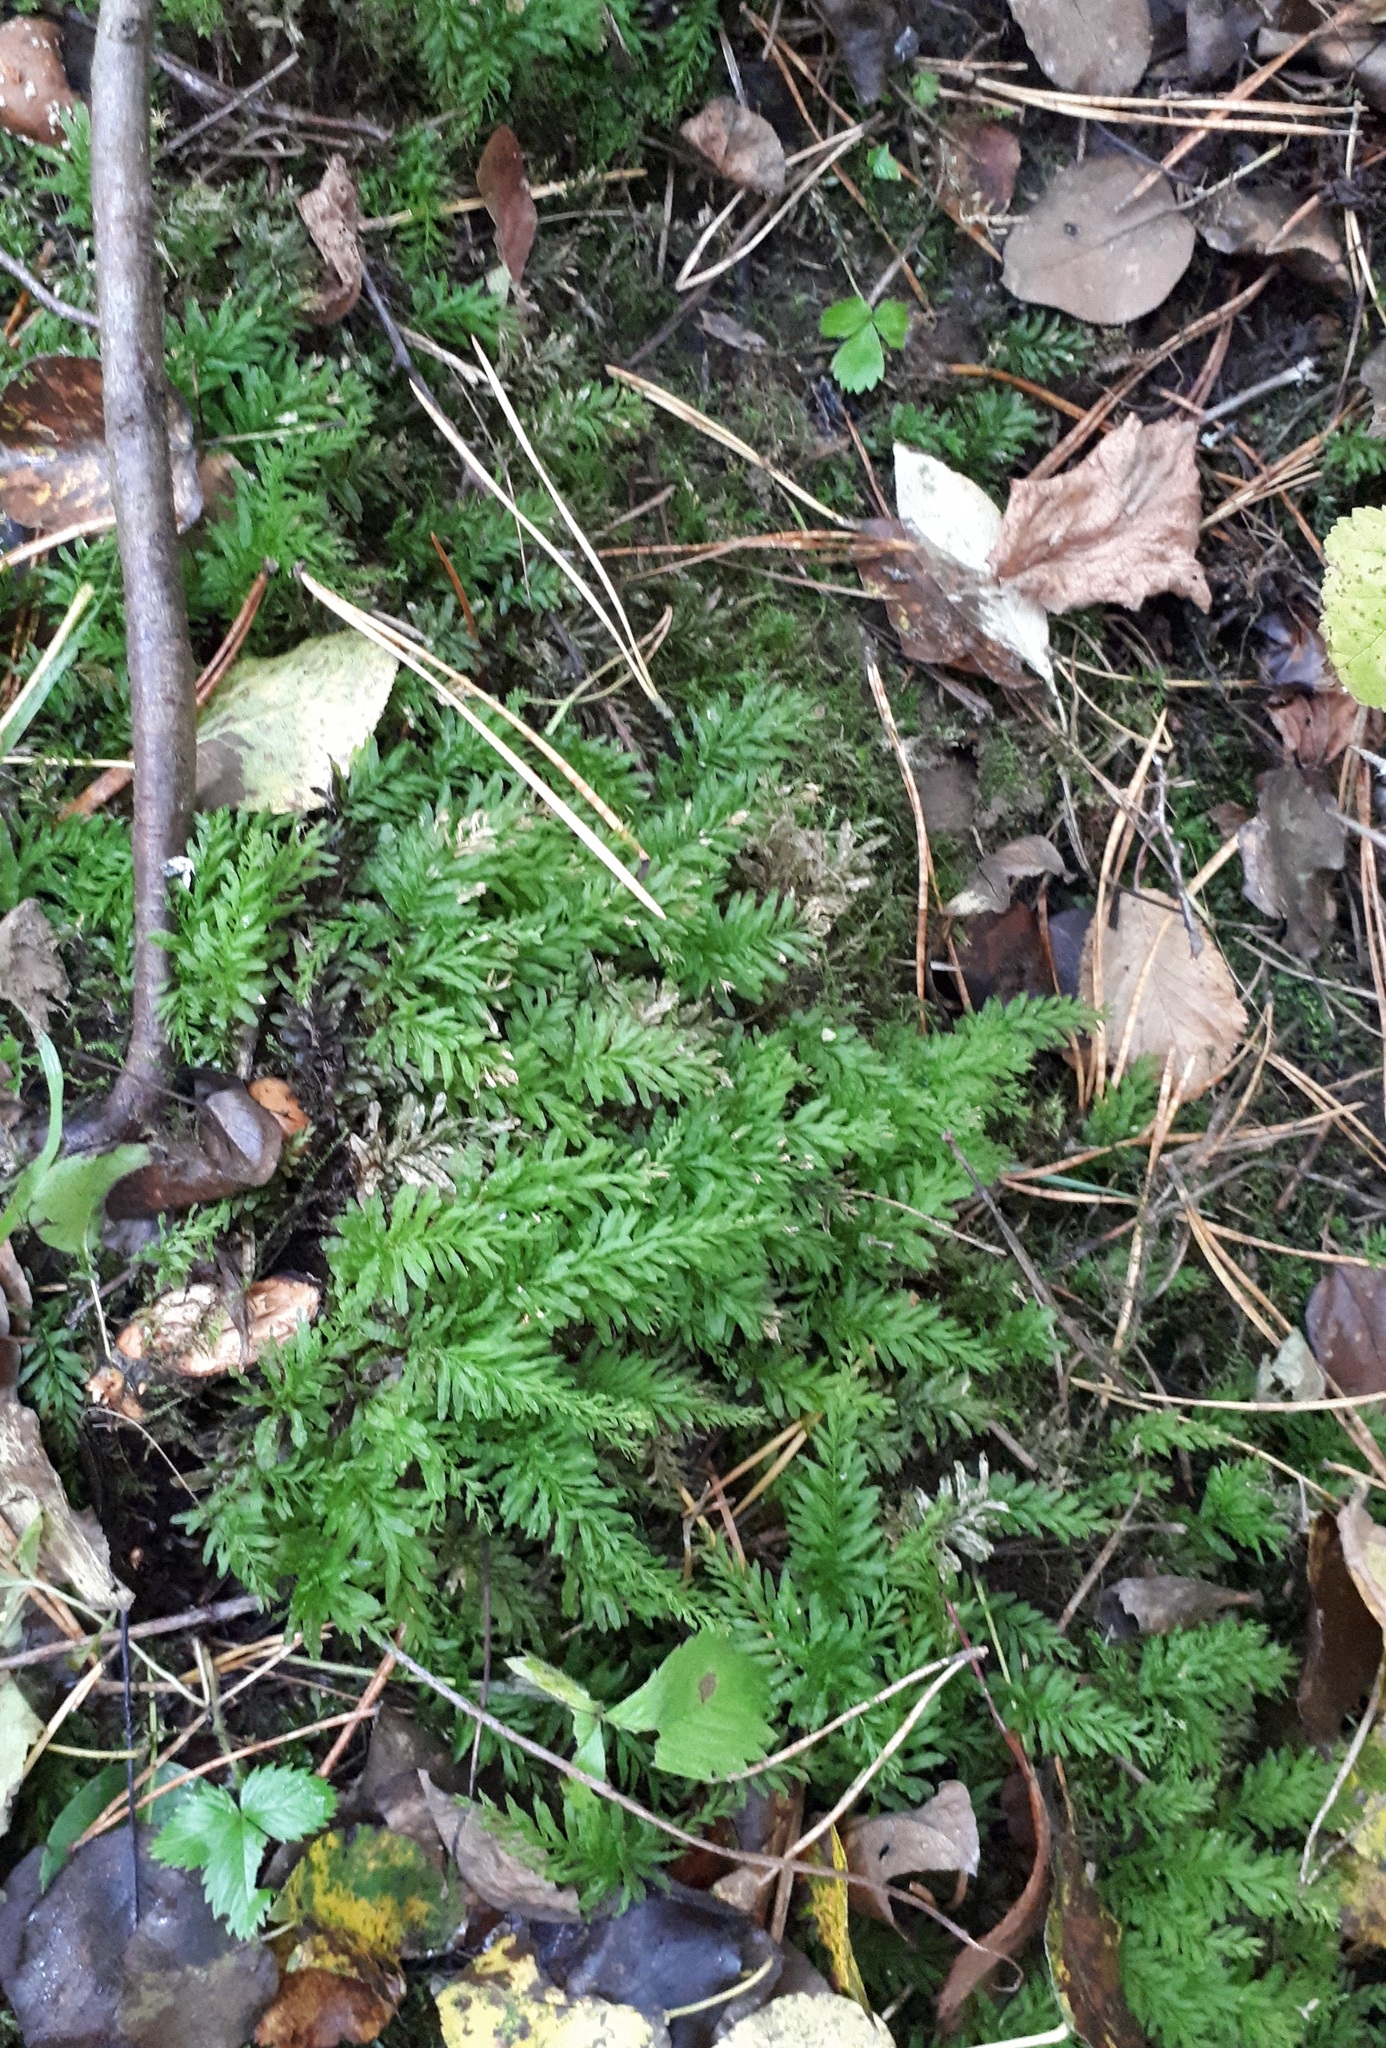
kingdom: Plantae
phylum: Bryophyta
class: Bryopsida
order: Bryales
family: Mniaceae
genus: Plagiomnium
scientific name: Plagiomnium undulatum
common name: Hart's-tongue thyme-moss
